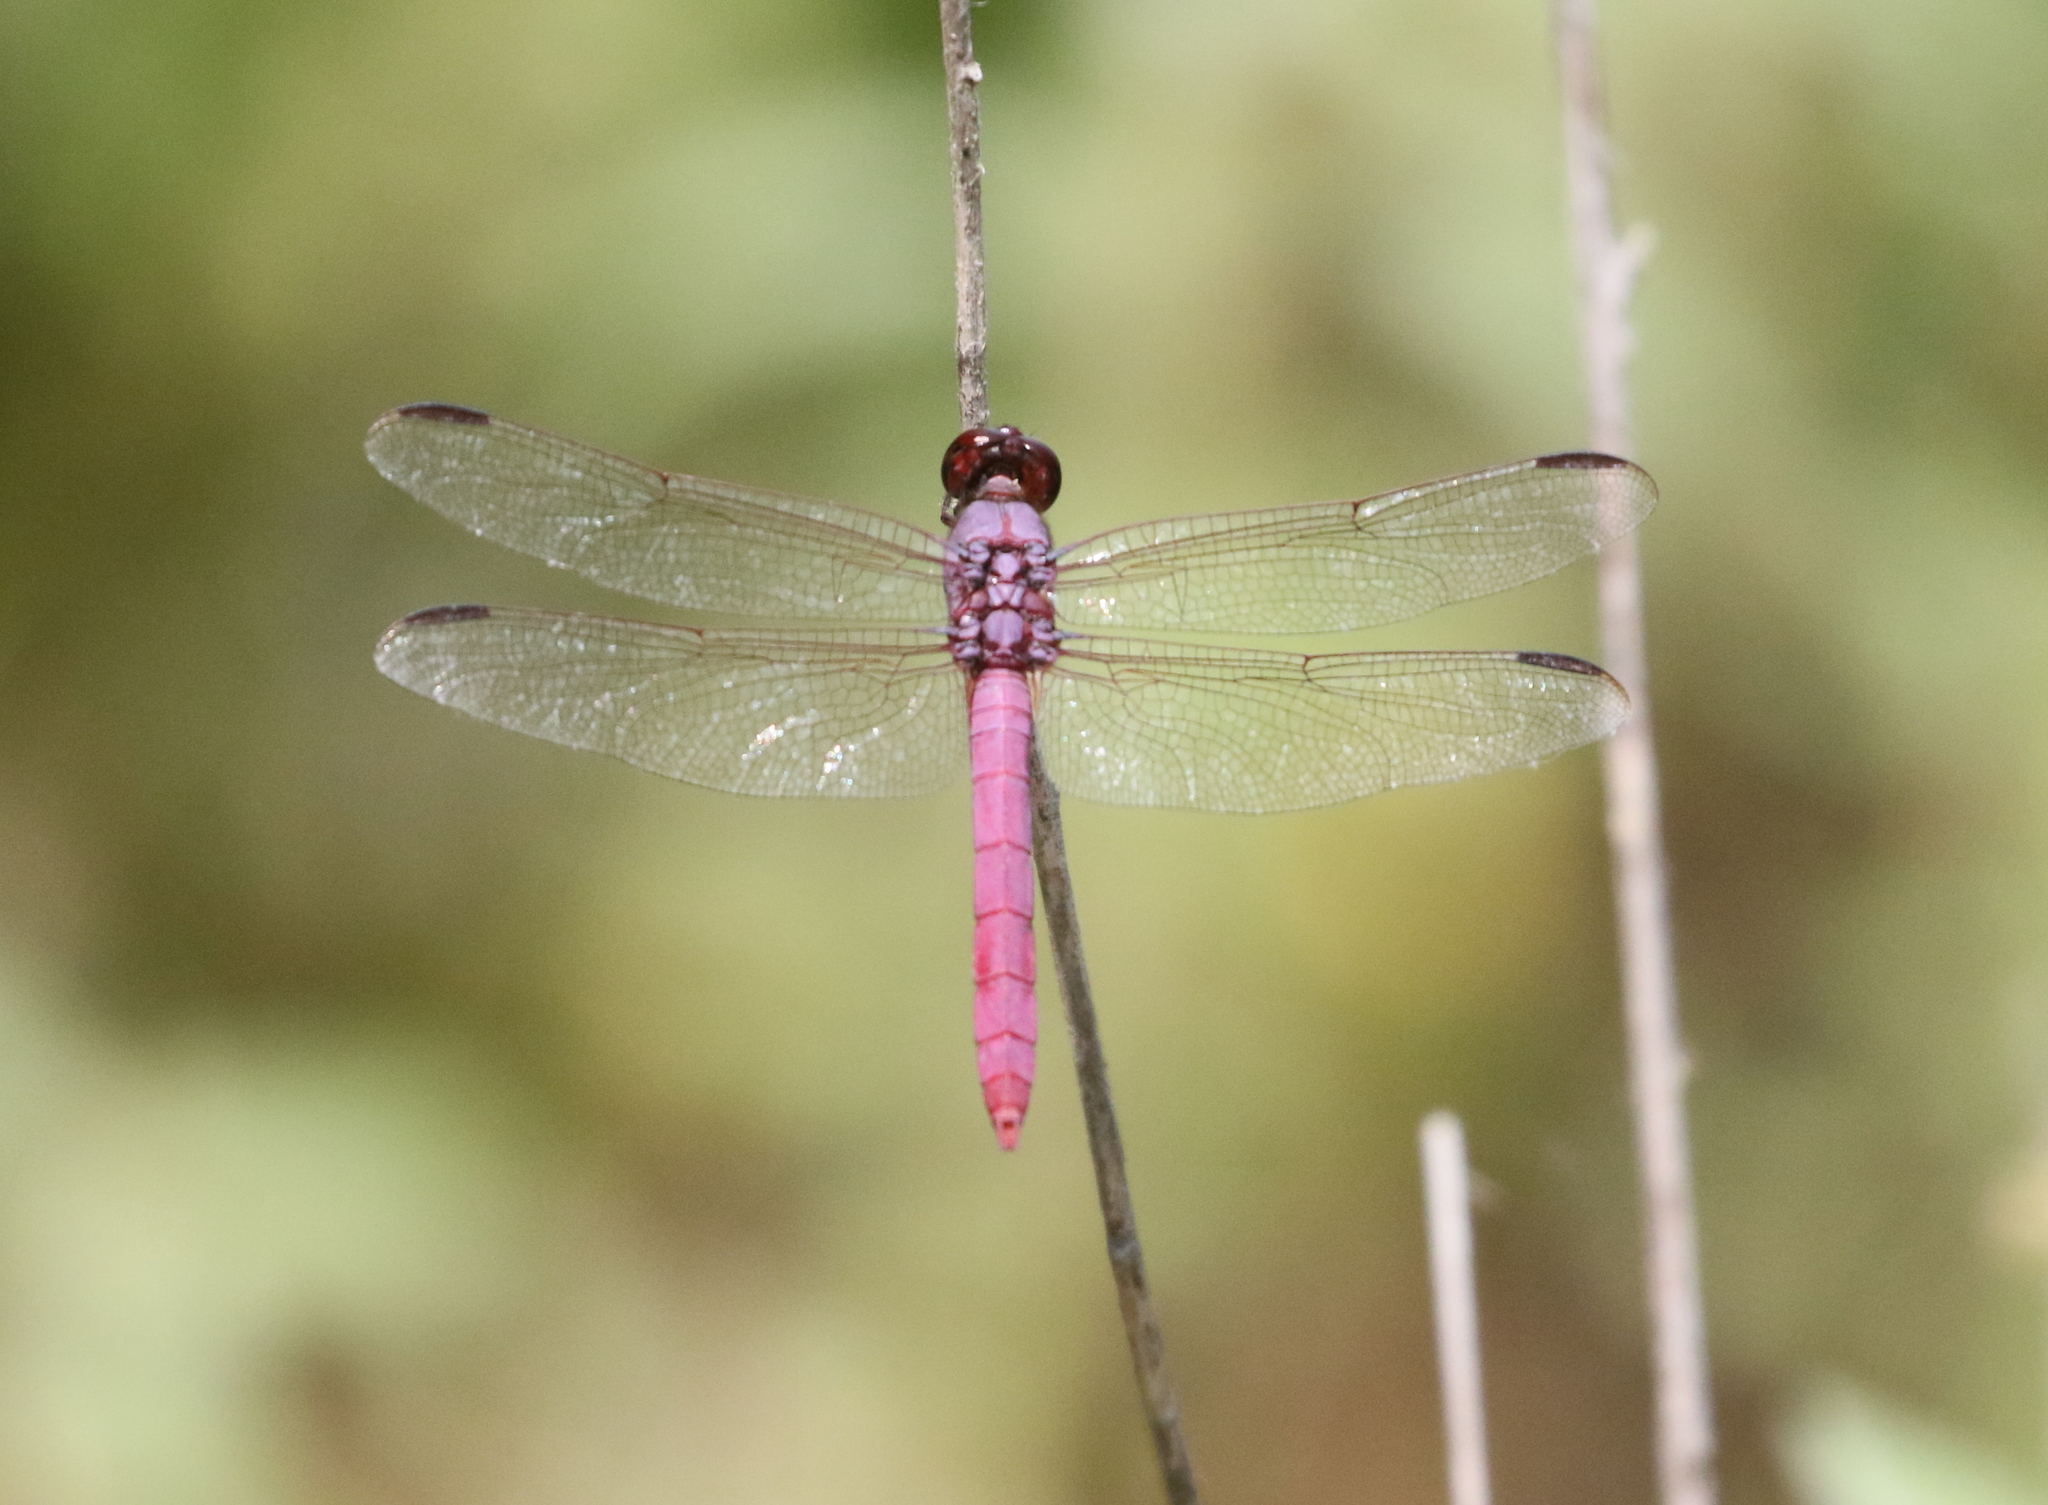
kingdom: Animalia
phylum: Arthropoda
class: Insecta
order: Odonata
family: Libellulidae
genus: Orthemis
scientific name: Orthemis ferruginea
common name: Roseate skimmer
